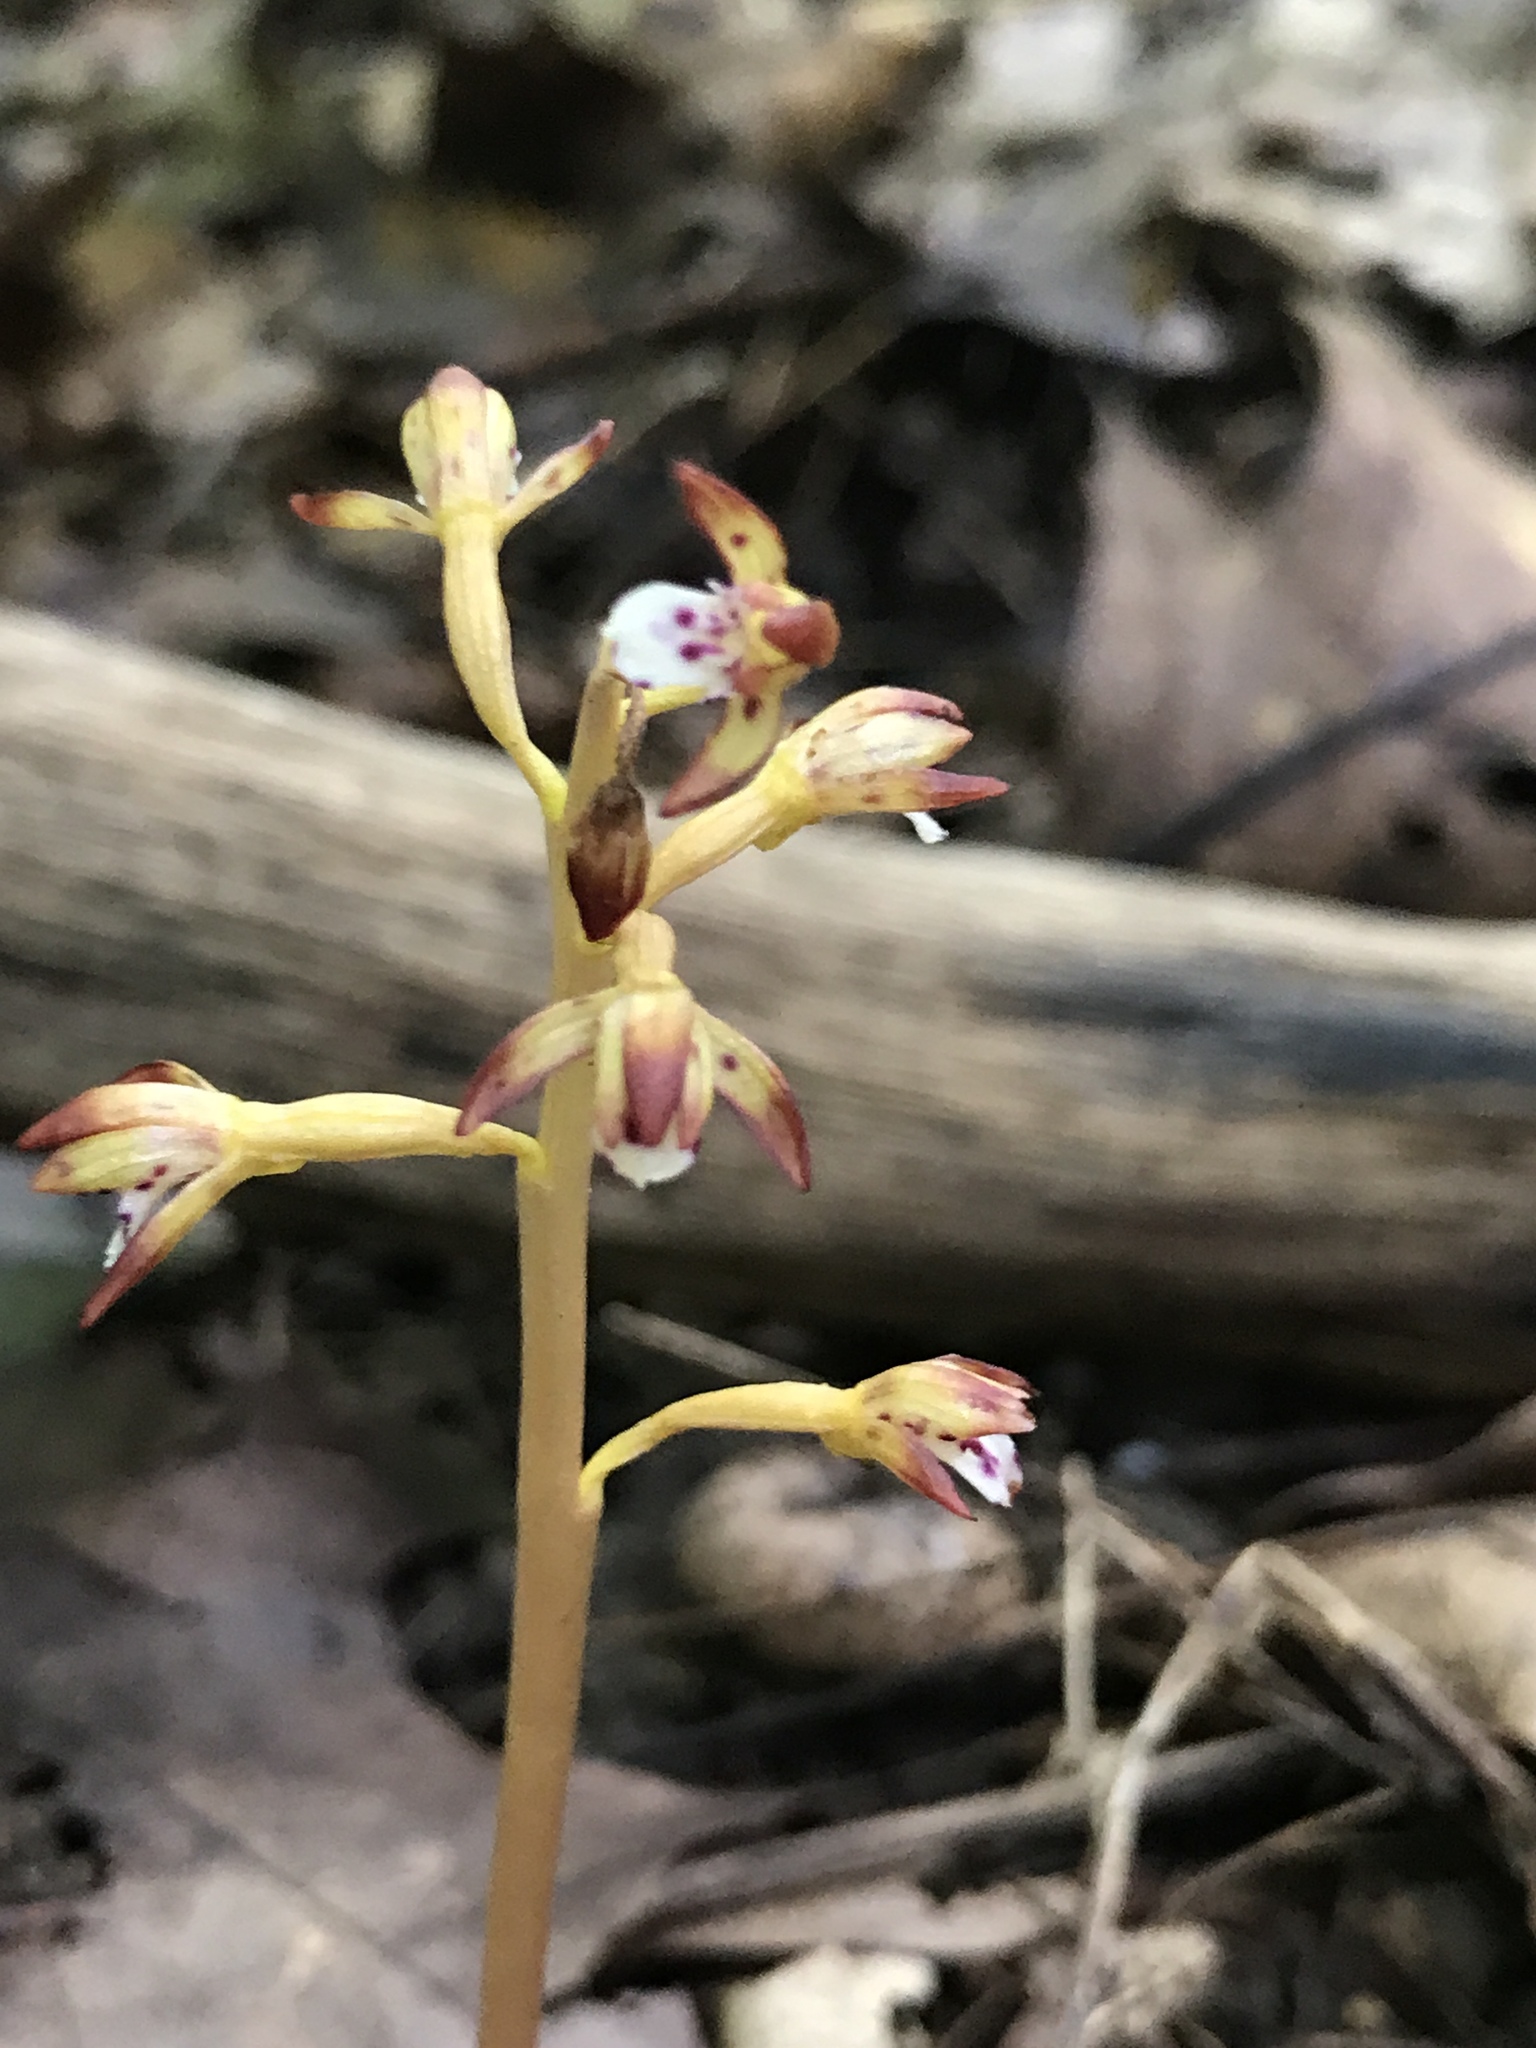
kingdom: Plantae
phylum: Tracheophyta
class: Liliopsida
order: Asparagales
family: Orchidaceae
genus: Corallorhiza
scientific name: Corallorhiza maculata
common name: Spotted coralroot
